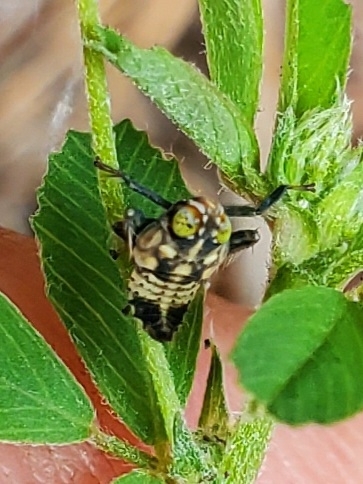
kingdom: Animalia
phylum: Arthropoda
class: Insecta
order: Hemiptera
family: Cicadellidae
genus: Jikradia
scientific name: Jikradia olitoria
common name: Coppery leafhopper
